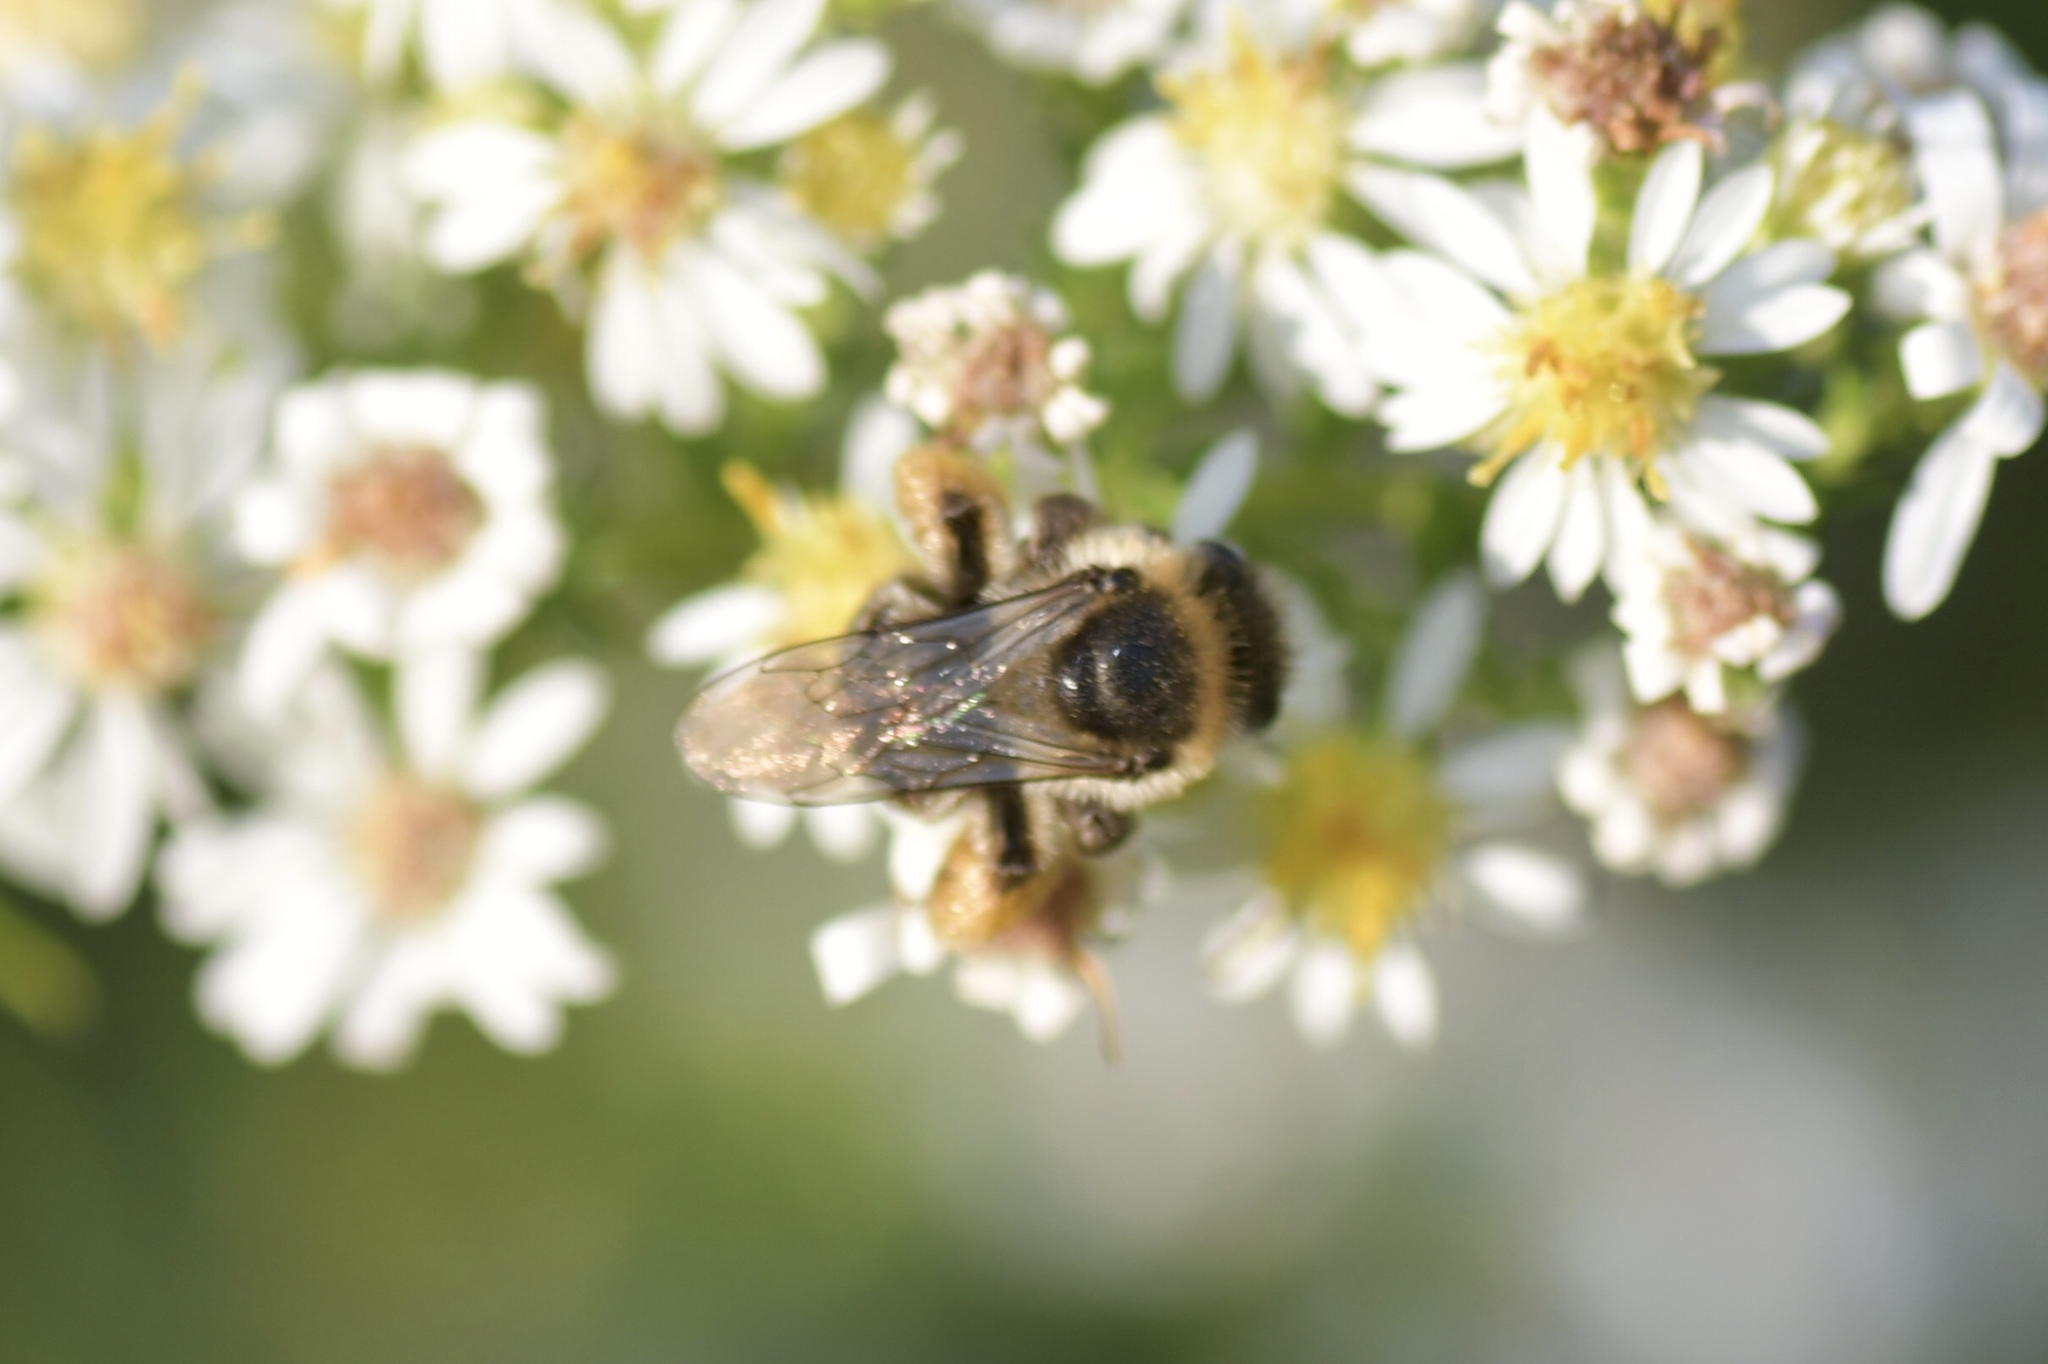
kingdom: Animalia
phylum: Arthropoda
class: Insecta
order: Hymenoptera
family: Apidae
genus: Melissodes
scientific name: Melissodes druriellus
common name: Drury's long-horned bee
